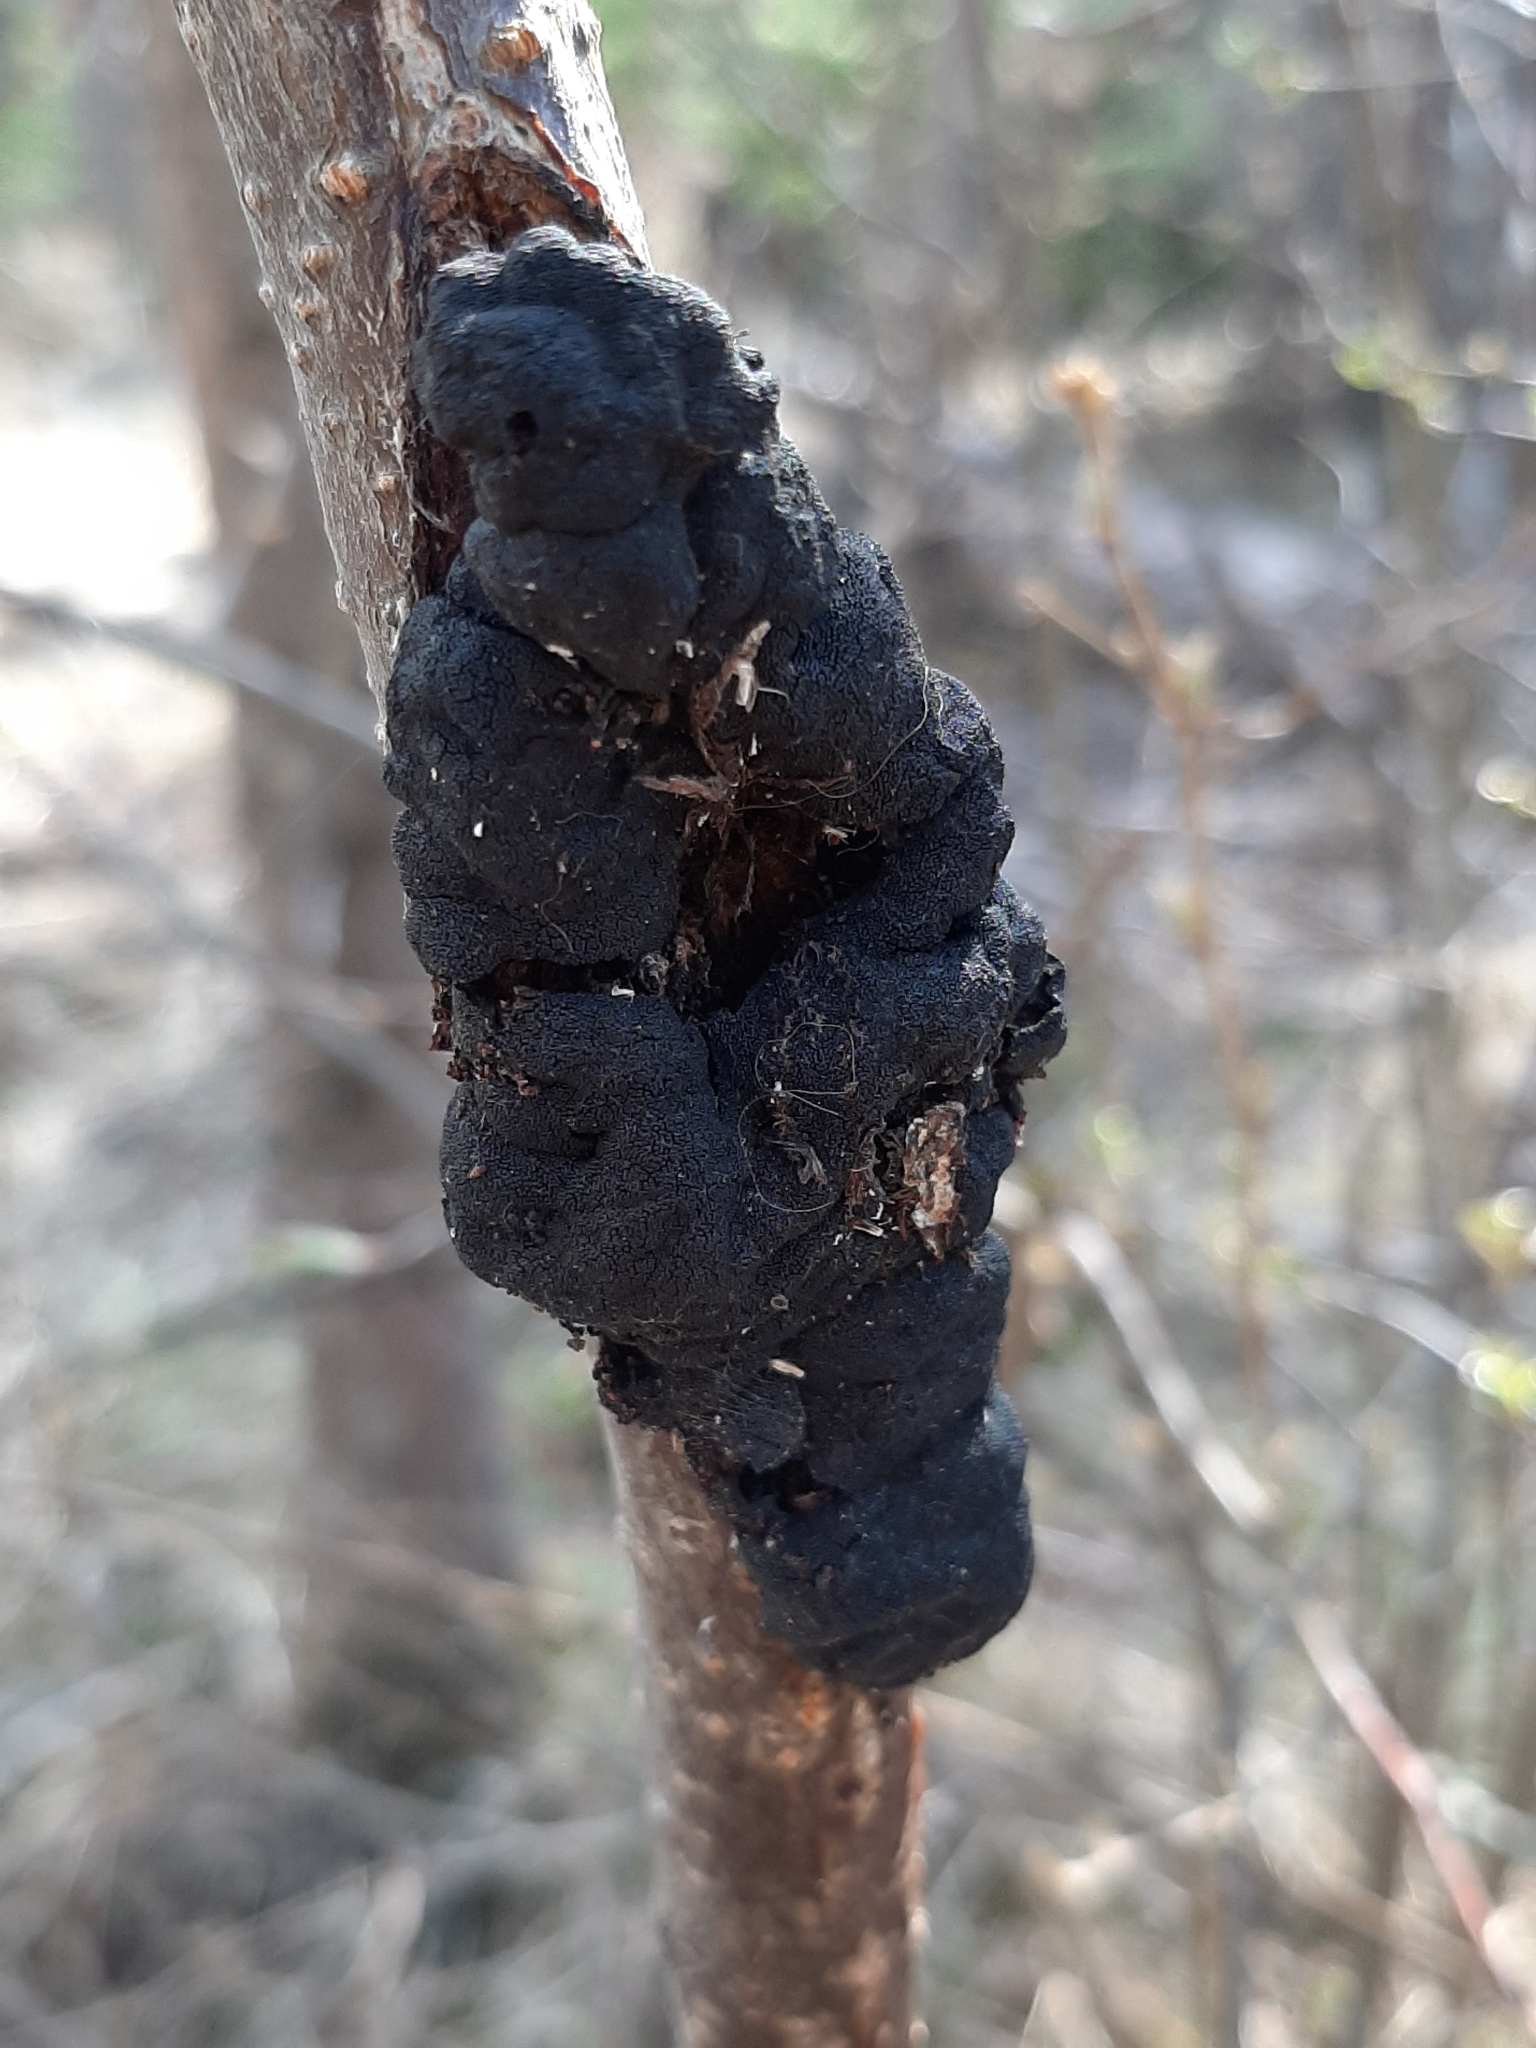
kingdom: Fungi
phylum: Ascomycota
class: Dothideomycetes
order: Venturiales
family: Venturiaceae
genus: Apiosporina
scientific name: Apiosporina morbosa
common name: Black knot
